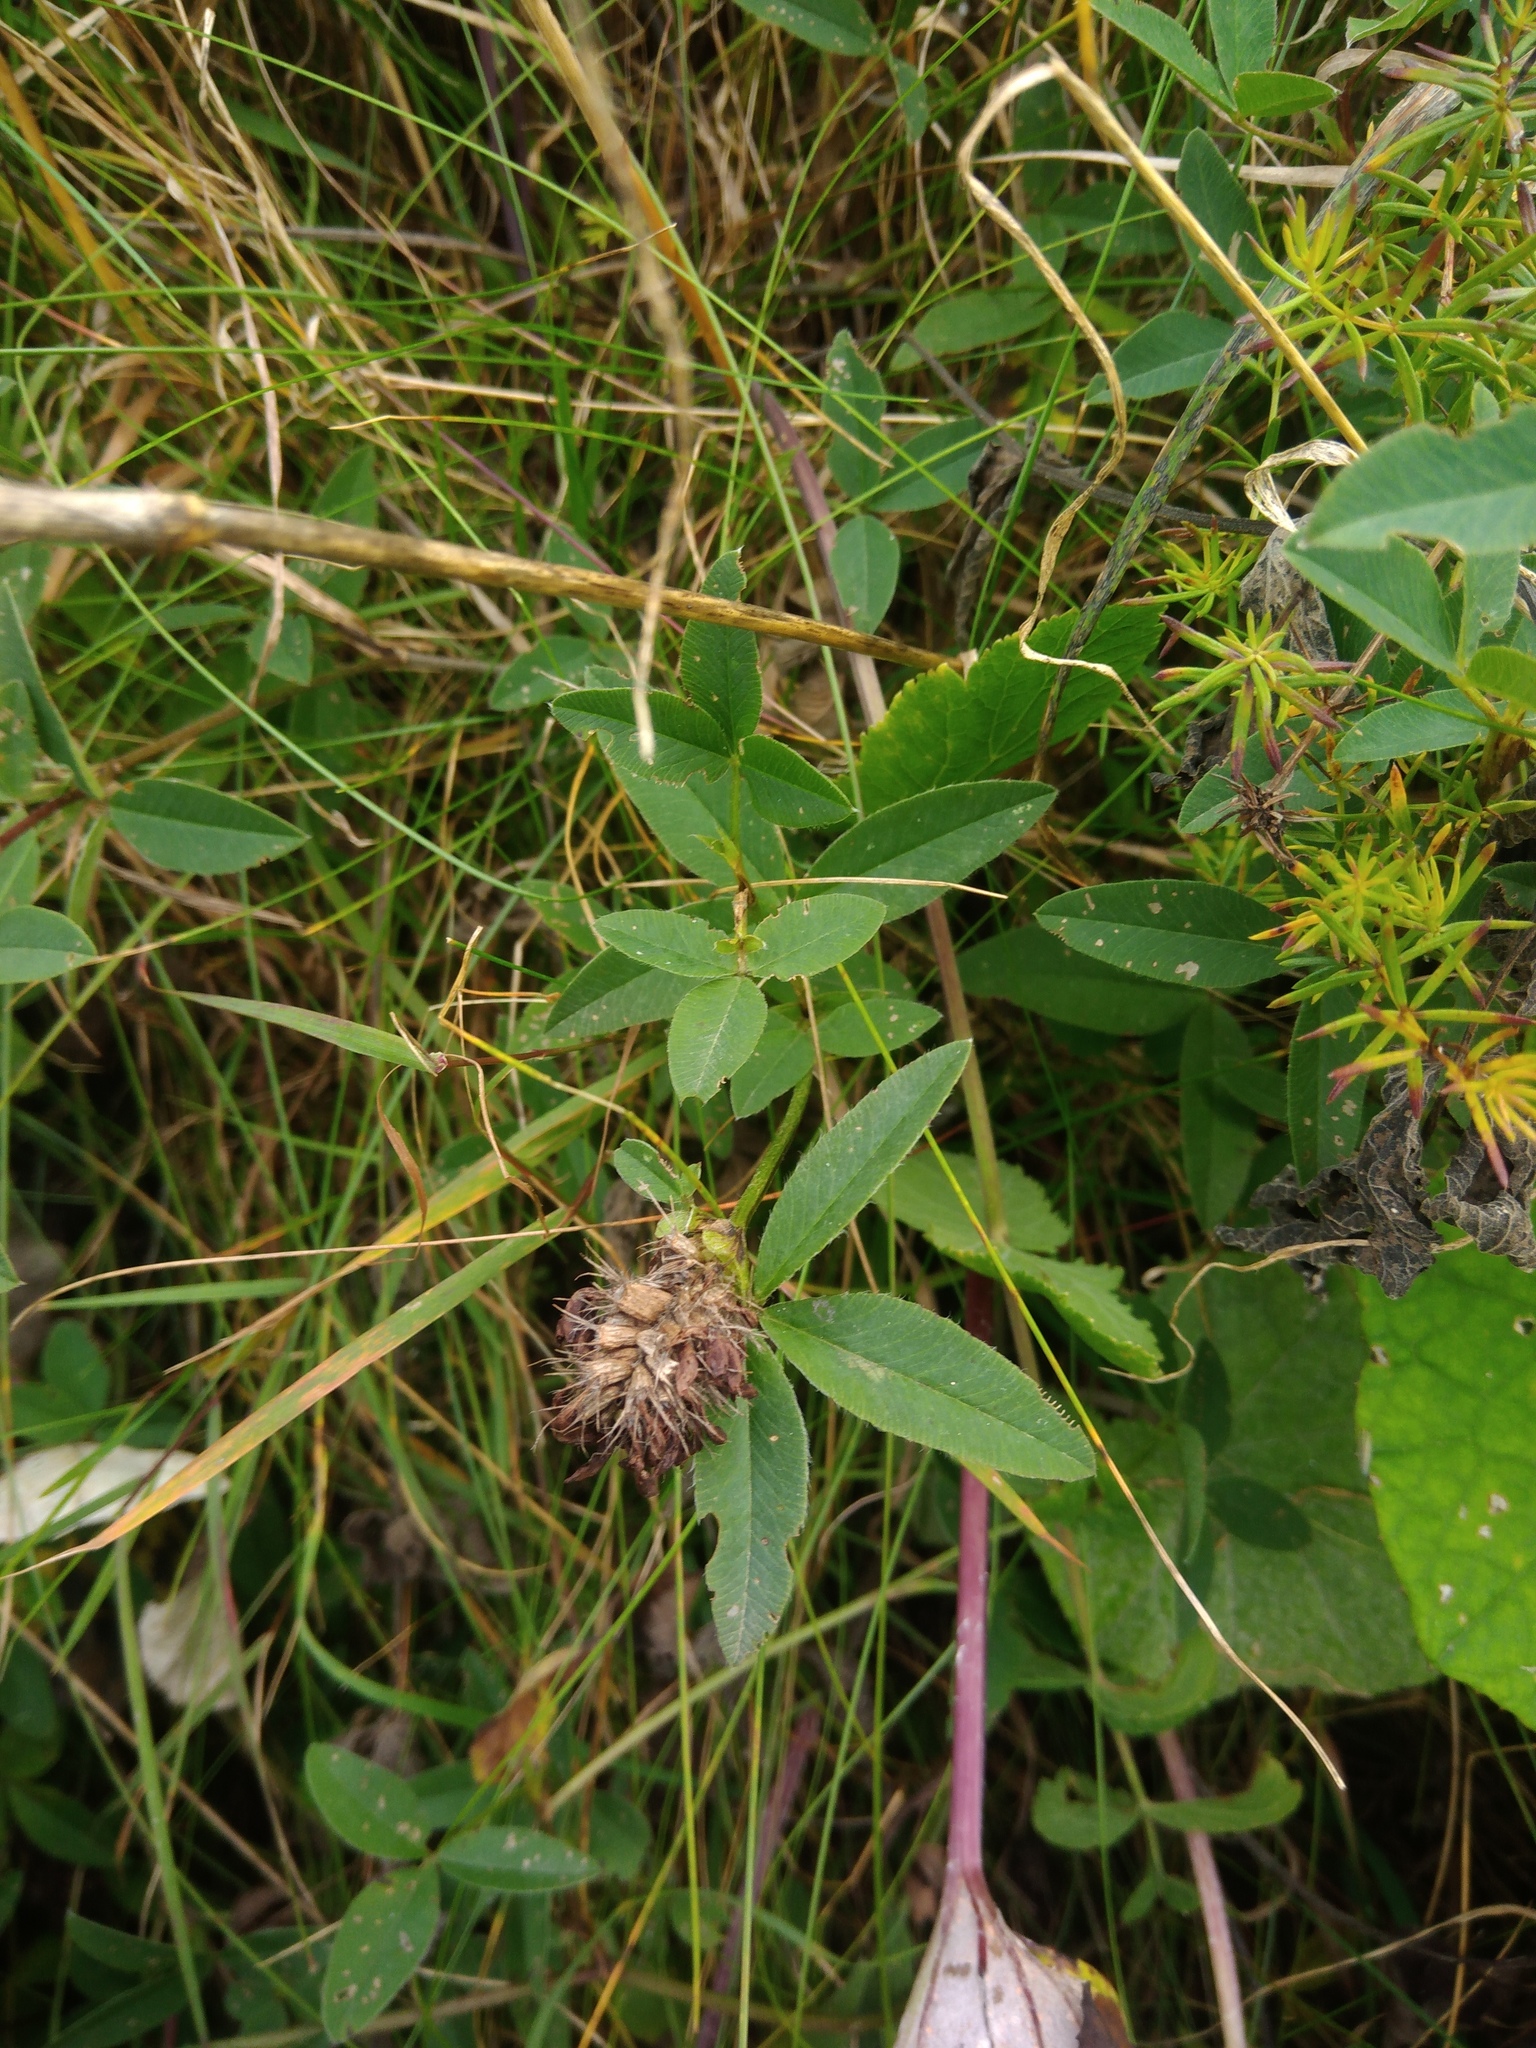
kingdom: Plantae
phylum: Tracheophyta
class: Magnoliopsida
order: Fabales
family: Fabaceae
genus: Trifolium
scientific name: Trifolium medium
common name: Zigzag clover
